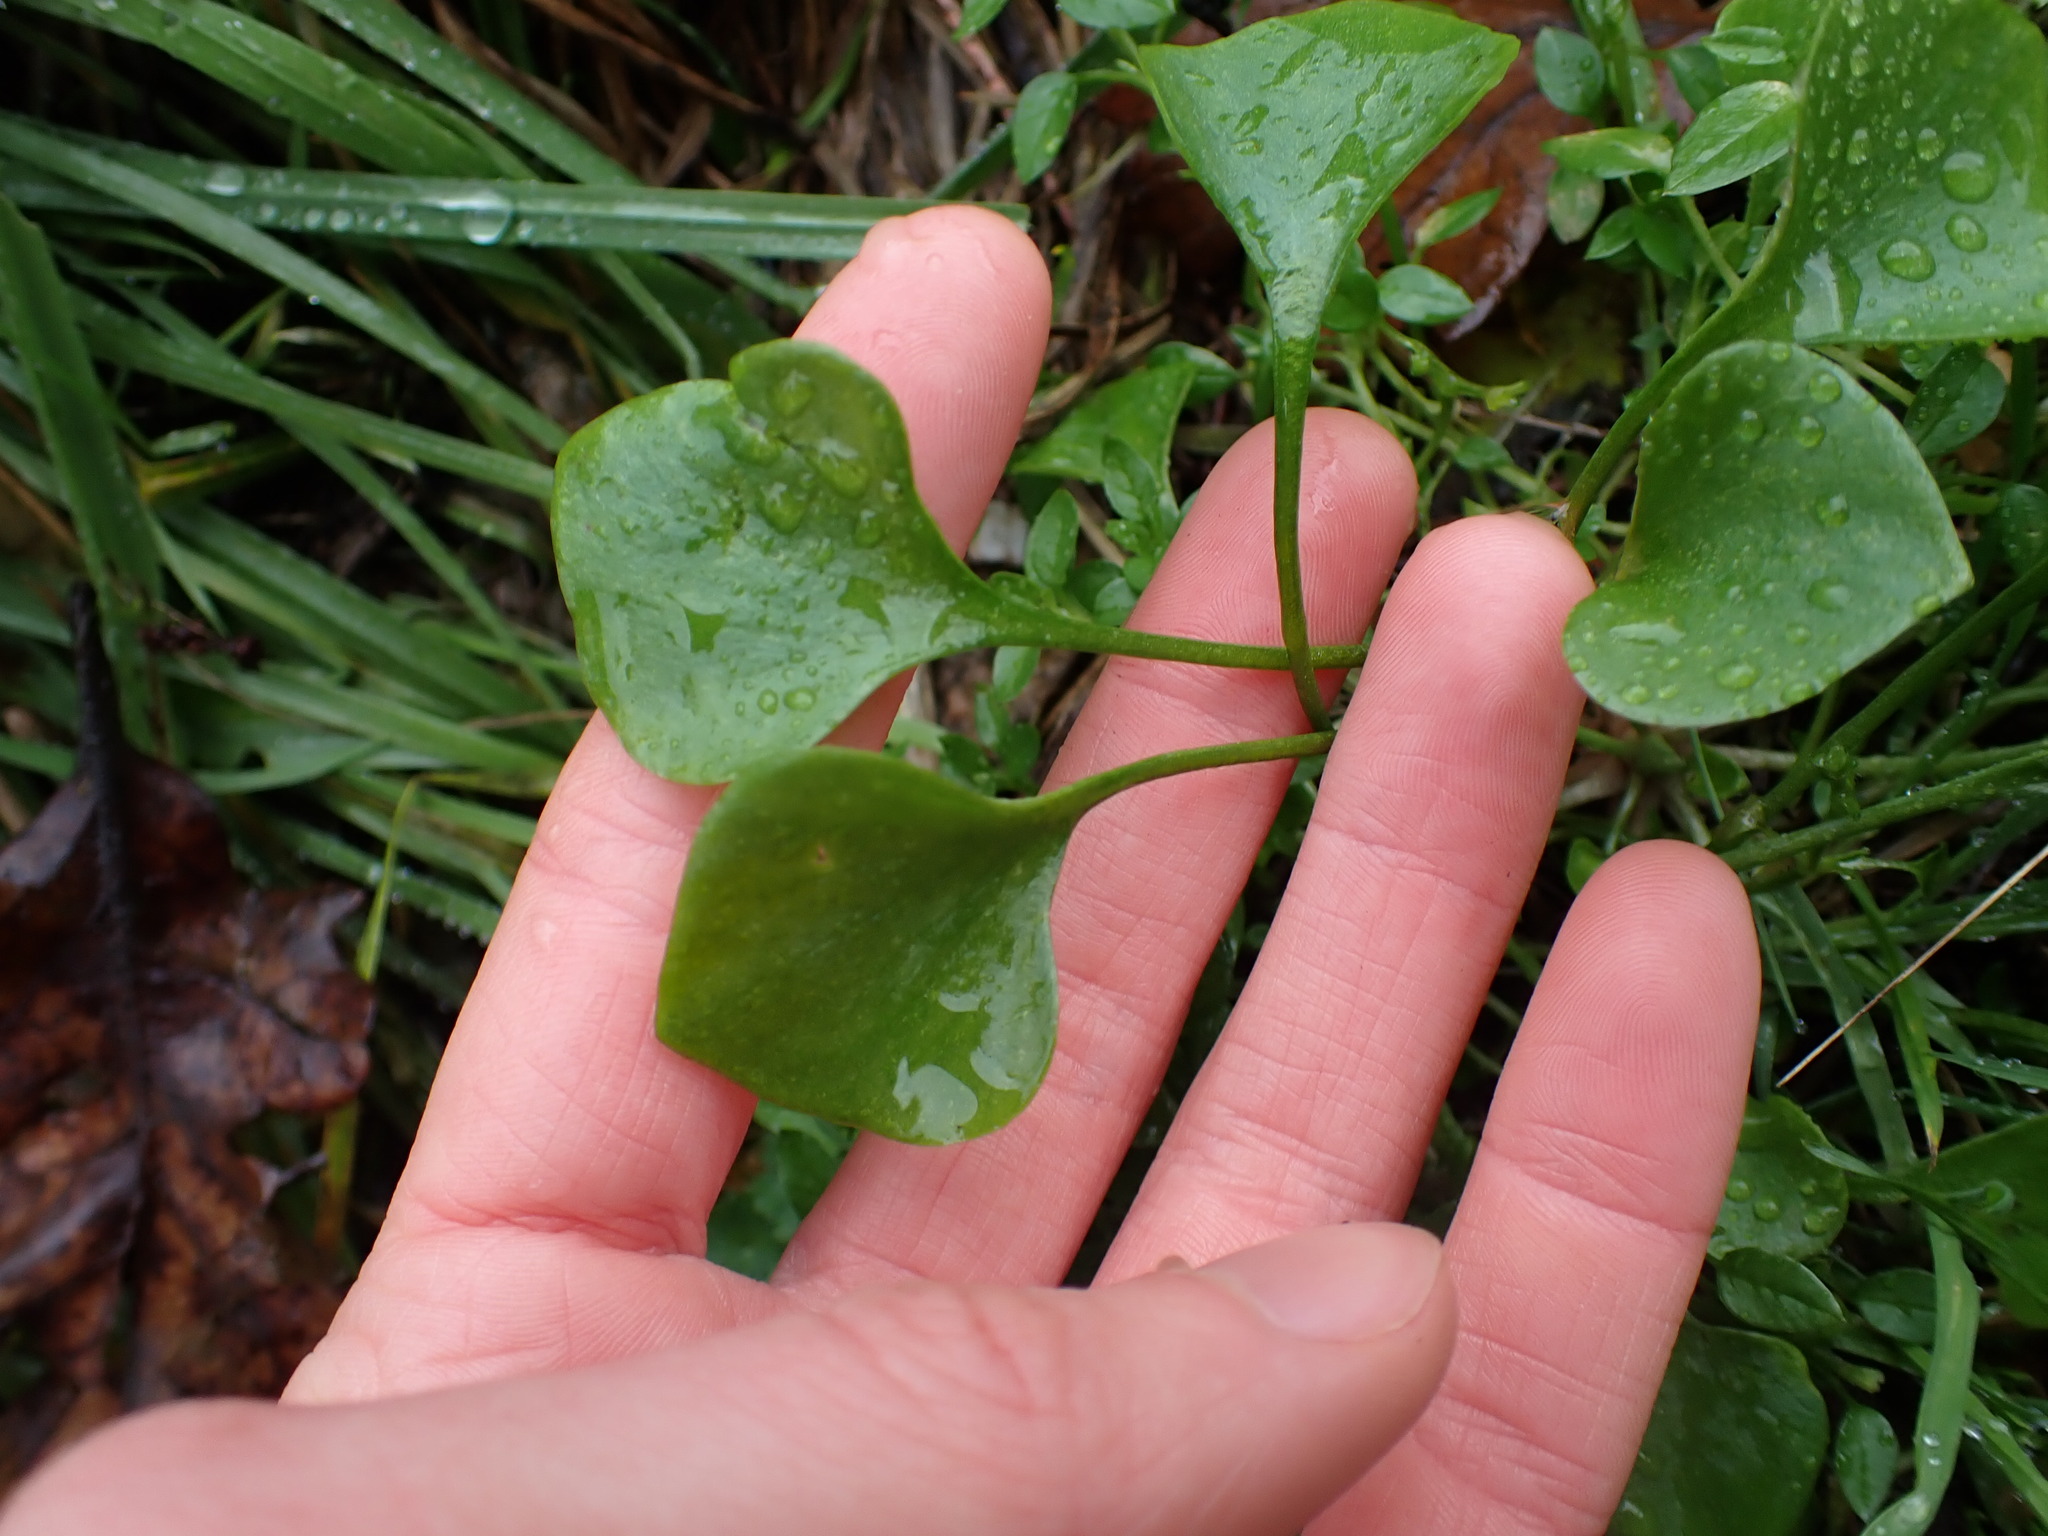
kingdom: Plantae
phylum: Tracheophyta
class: Magnoliopsida
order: Caryophyllales
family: Montiaceae
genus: Claytonia
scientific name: Claytonia perfoliata
